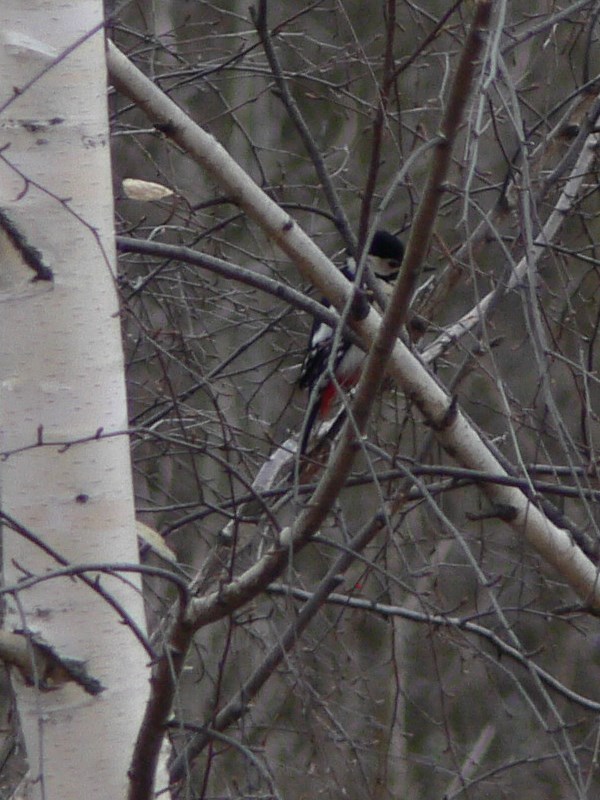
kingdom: Animalia
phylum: Chordata
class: Aves
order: Piciformes
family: Picidae
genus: Dendrocopos
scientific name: Dendrocopos major
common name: Great spotted woodpecker
